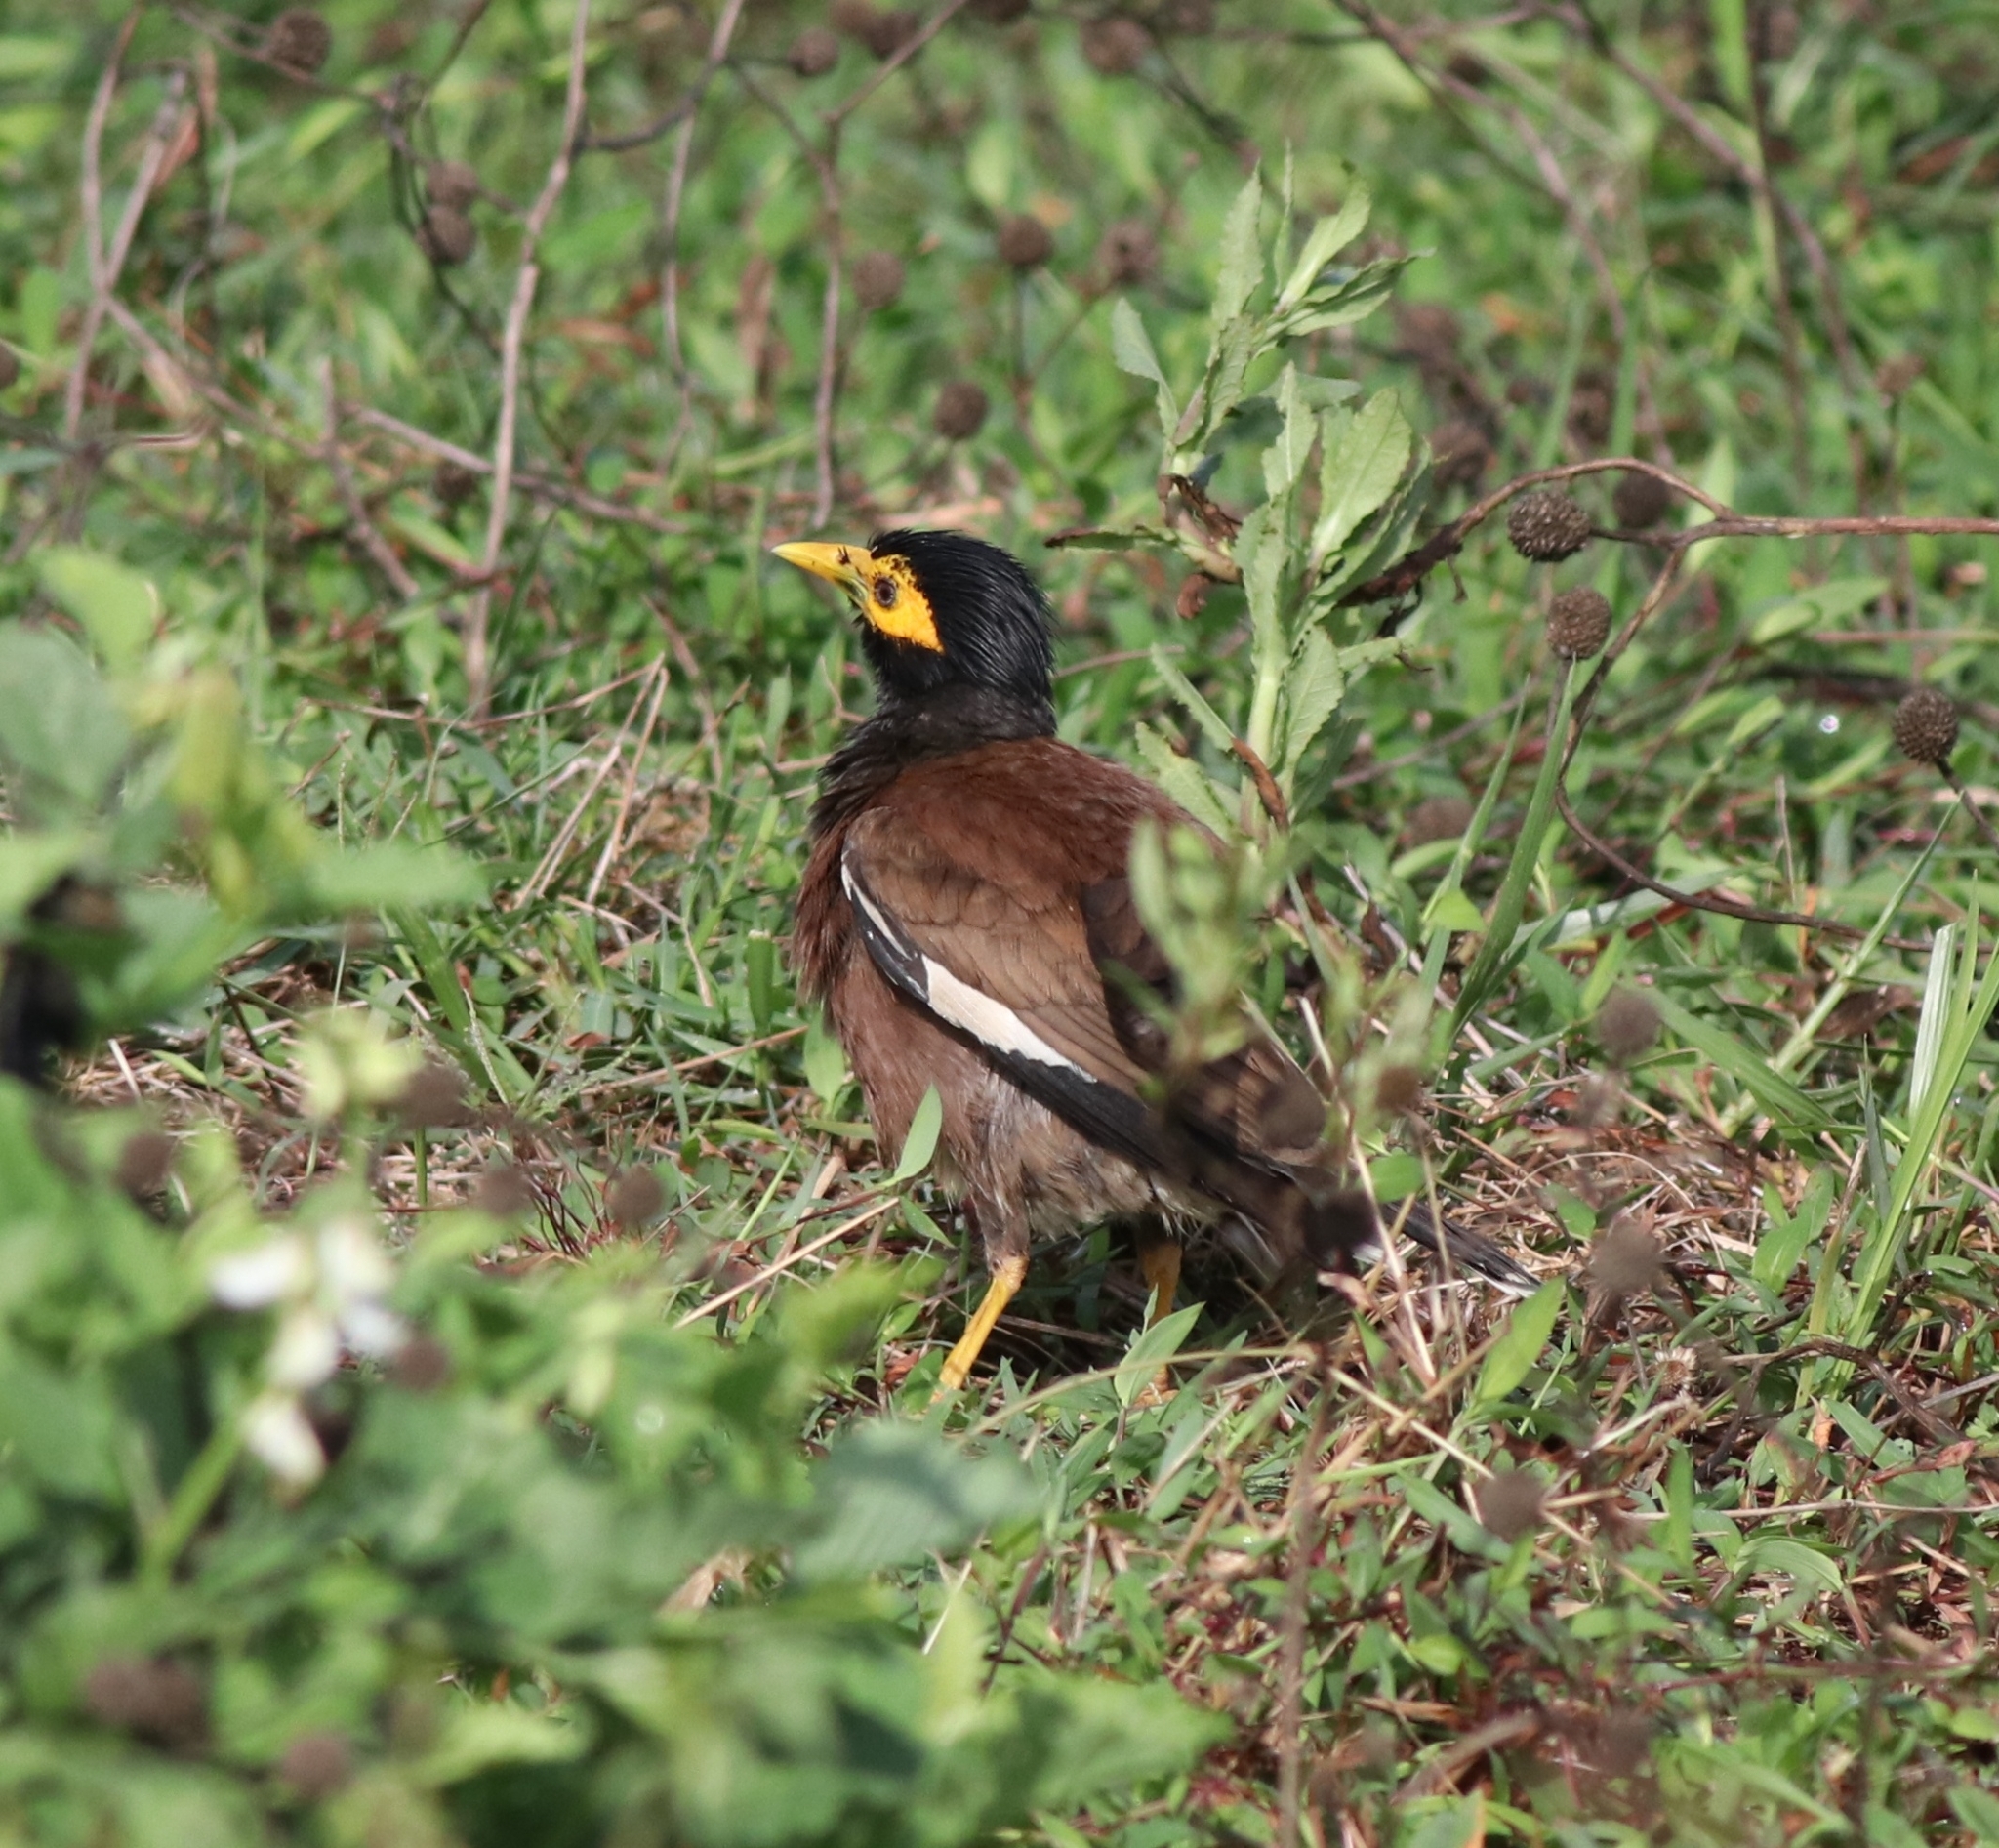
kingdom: Animalia
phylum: Chordata
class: Aves
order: Passeriformes
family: Sturnidae
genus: Acridotheres
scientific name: Acridotheres tristis
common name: Common myna
